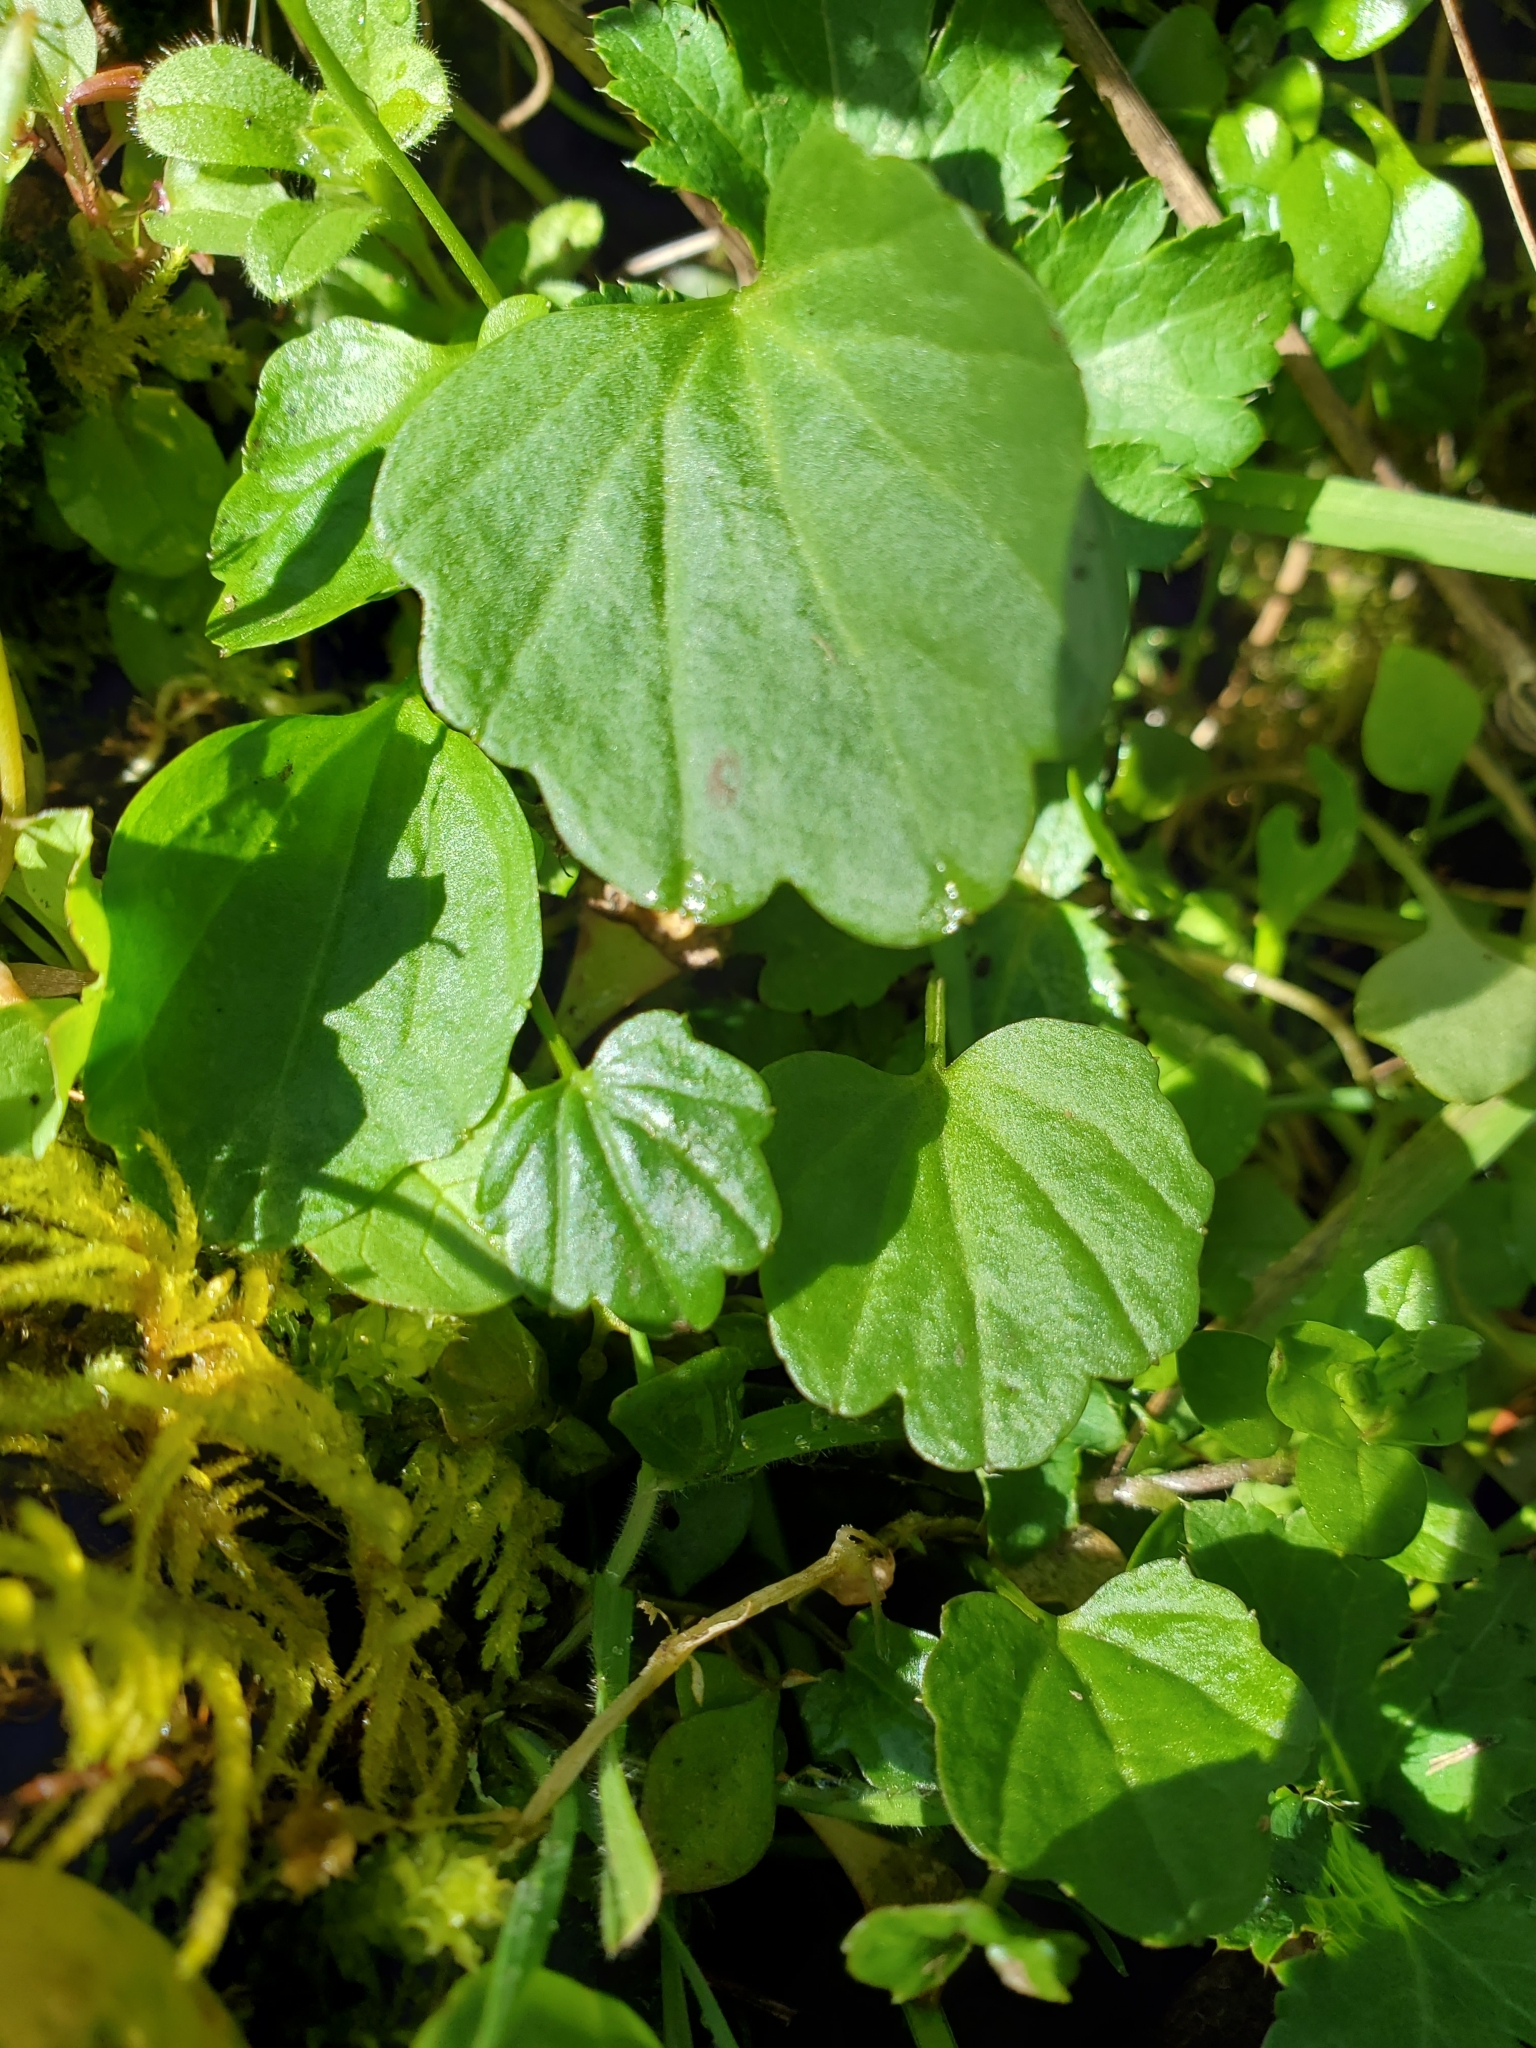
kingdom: Plantae
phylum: Tracheophyta
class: Magnoliopsida
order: Brassicales
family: Brassicaceae
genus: Cardamine
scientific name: Cardamine nuttallii
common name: Nuttall's toothwort
